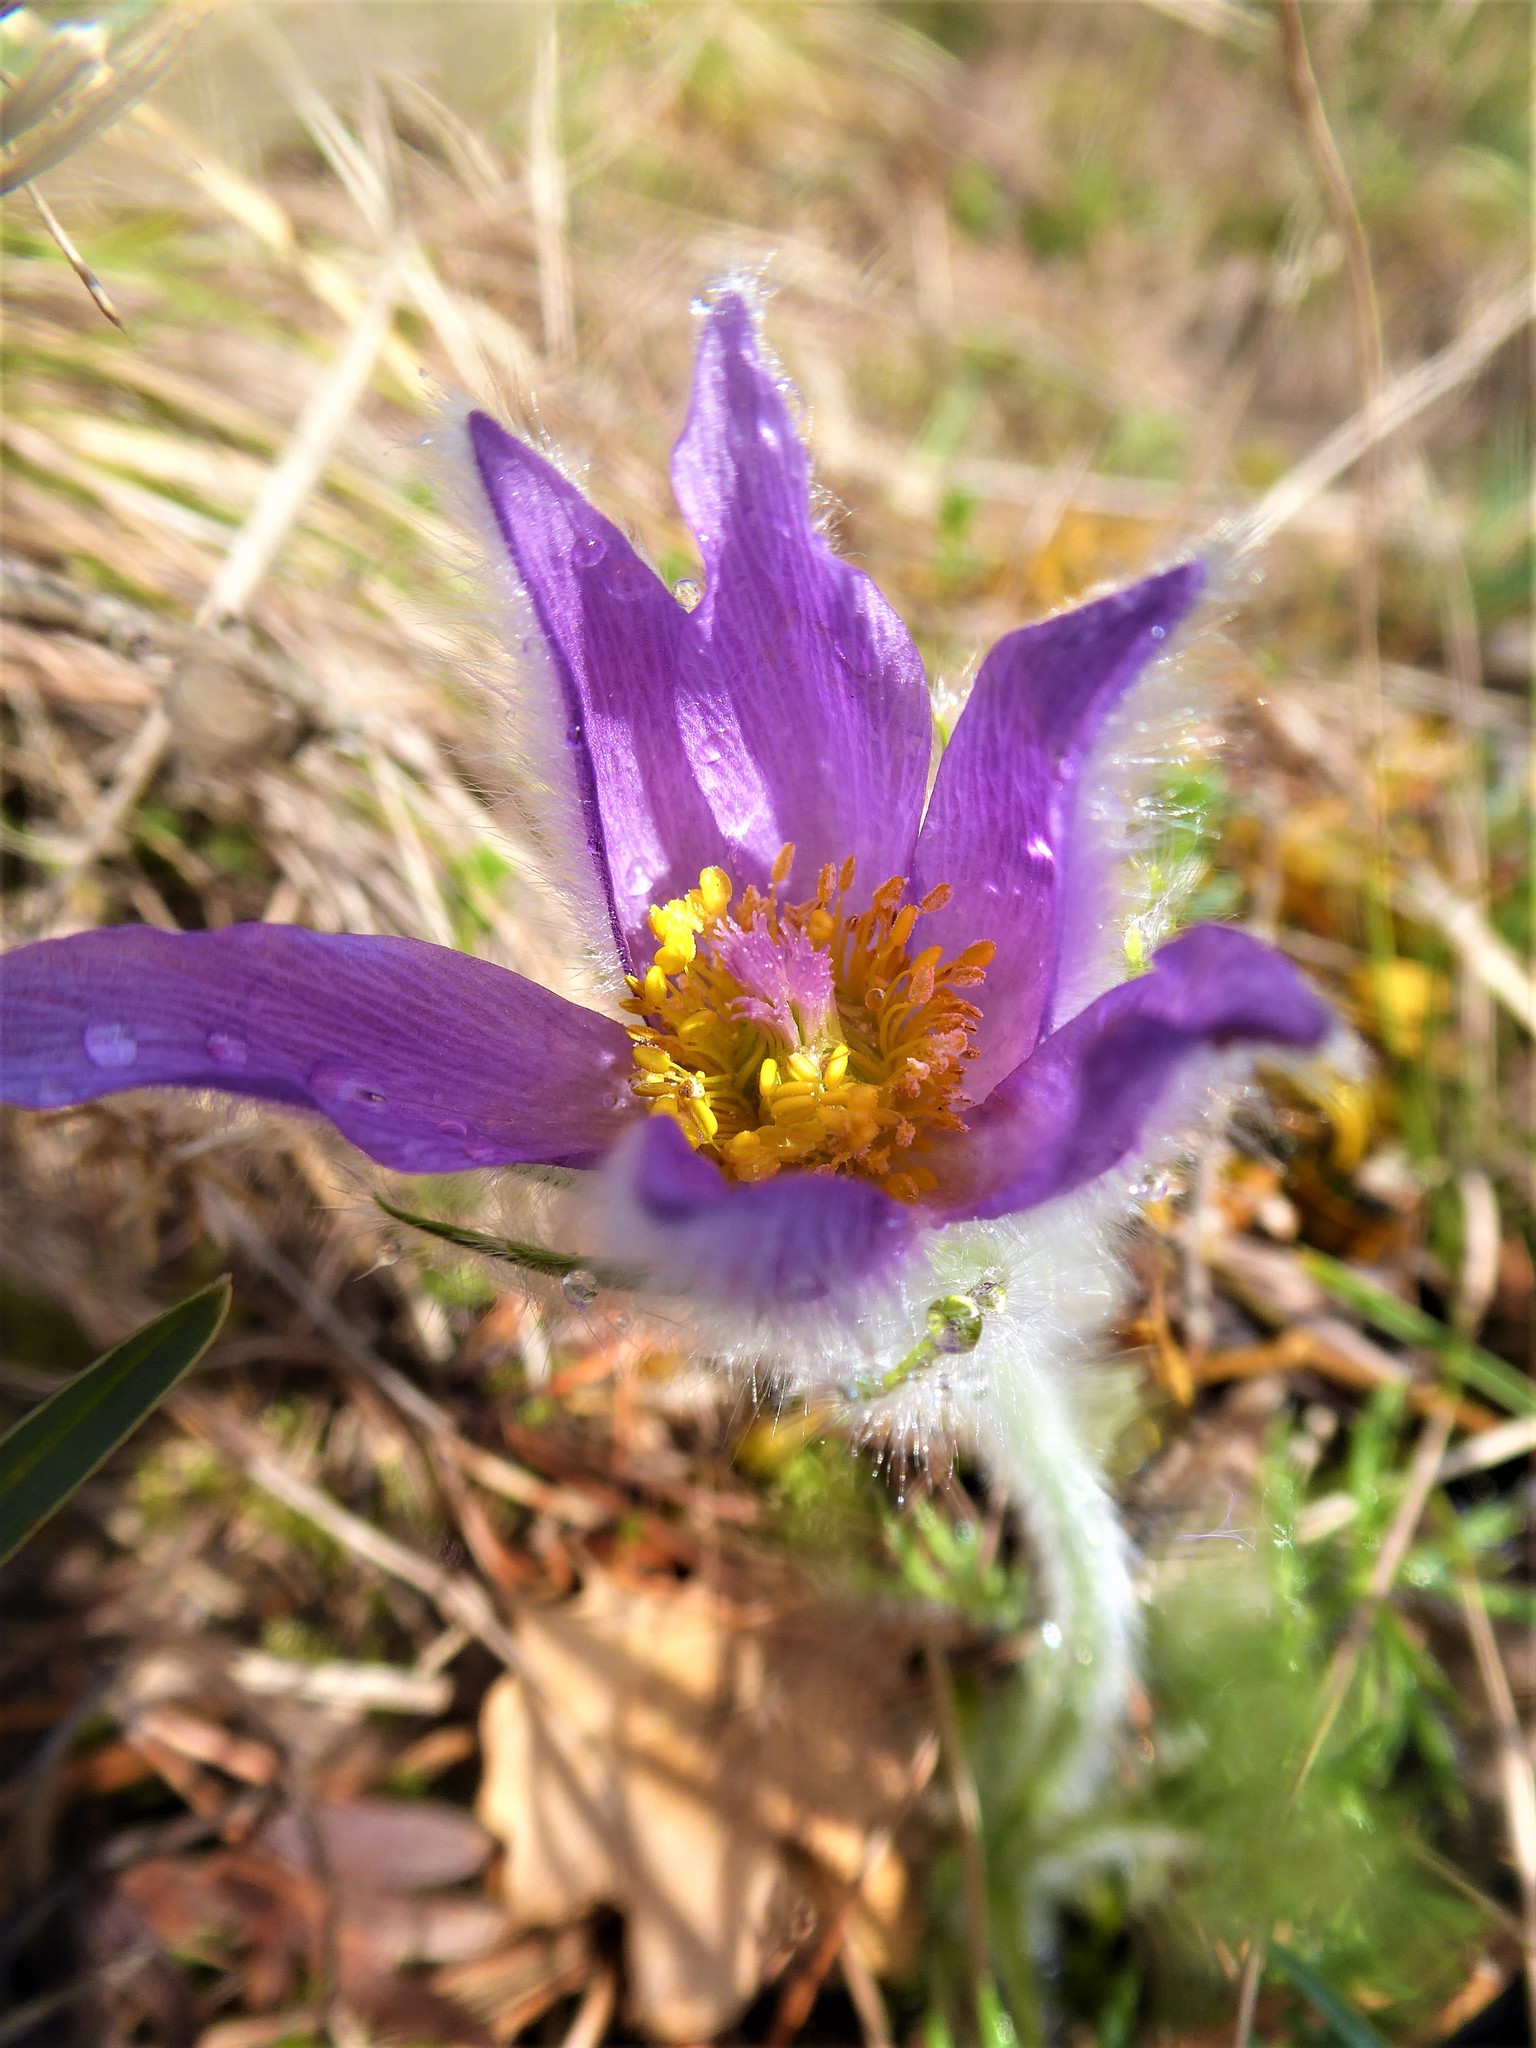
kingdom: Plantae
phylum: Tracheophyta
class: Magnoliopsida
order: Ranunculales
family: Ranunculaceae
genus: Pulsatilla
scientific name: Pulsatilla grandis
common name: Greater pasque flower
